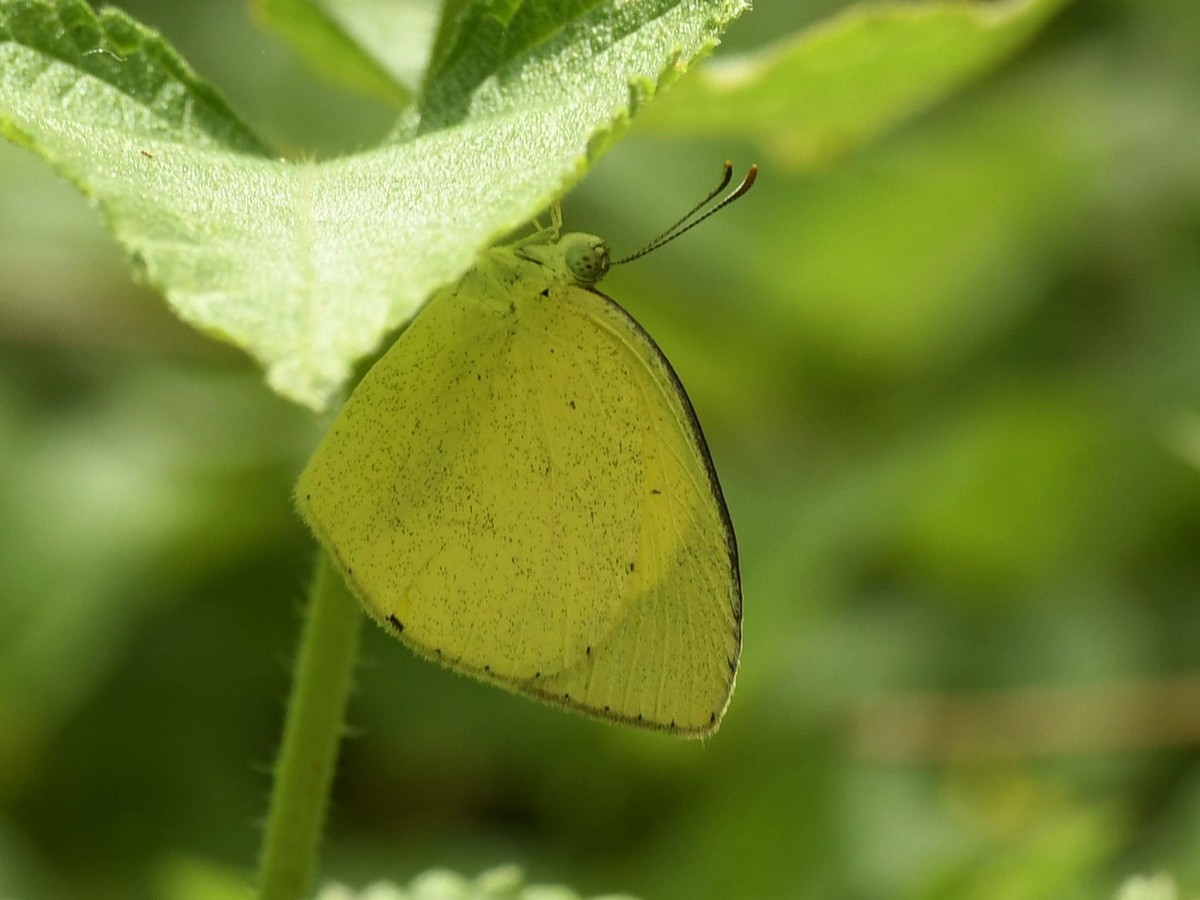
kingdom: Animalia
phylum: Arthropoda
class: Insecta
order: Lepidoptera
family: Pieridae
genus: Eurema
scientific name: Eurema brigitta
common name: Small grass yellow
